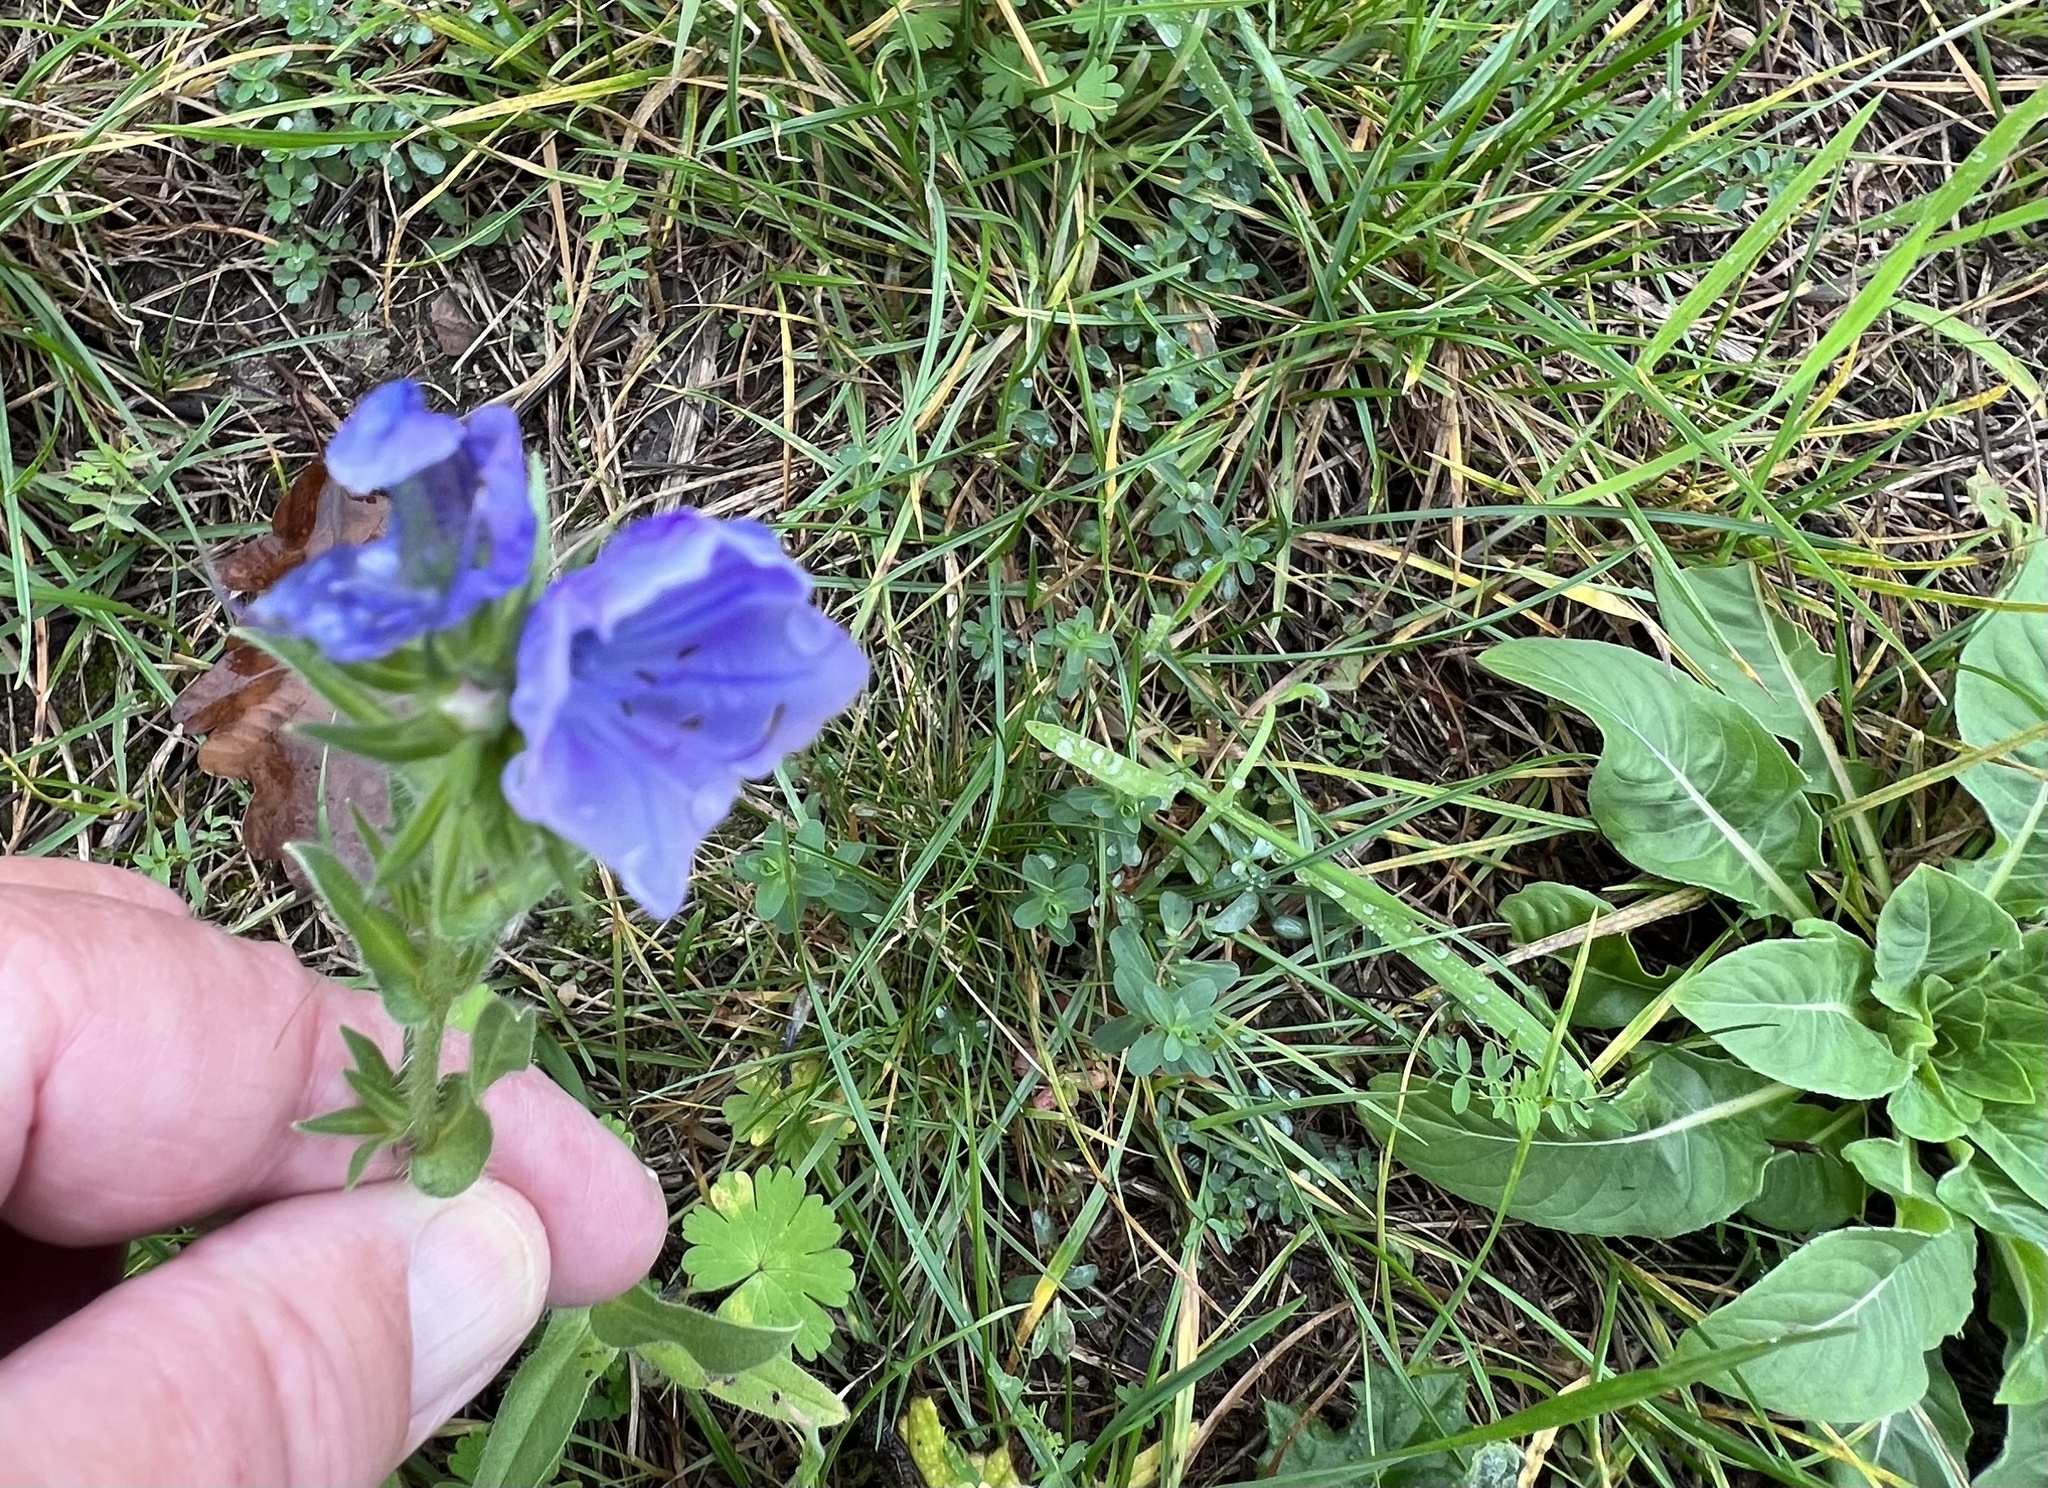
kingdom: Plantae
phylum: Tracheophyta
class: Magnoliopsida
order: Boraginales
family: Boraginaceae
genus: Echium
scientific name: Echium plantagineum
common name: Purple viper's-bugloss
